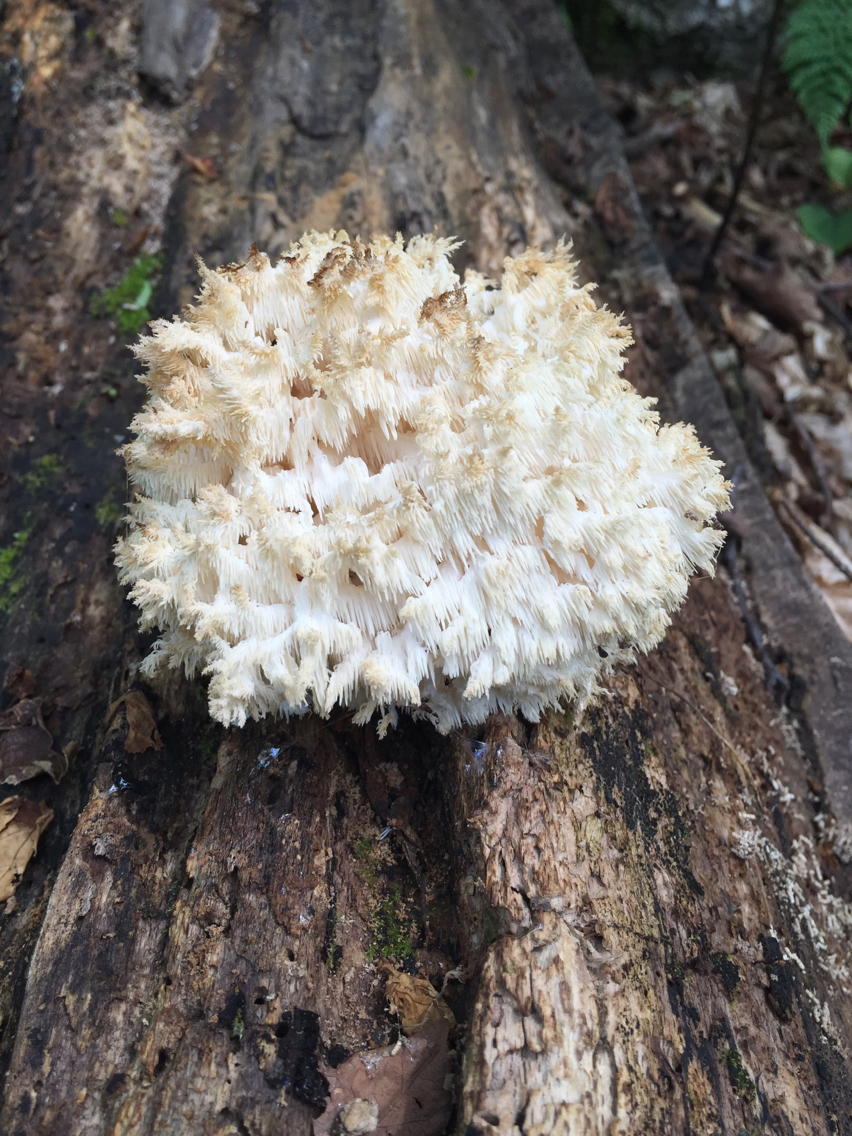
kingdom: Fungi
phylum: Basidiomycota
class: Agaricomycetes
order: Russulales
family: Hericiaceae
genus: Hericium
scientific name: Hericium coralloides
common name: Coral tooth
